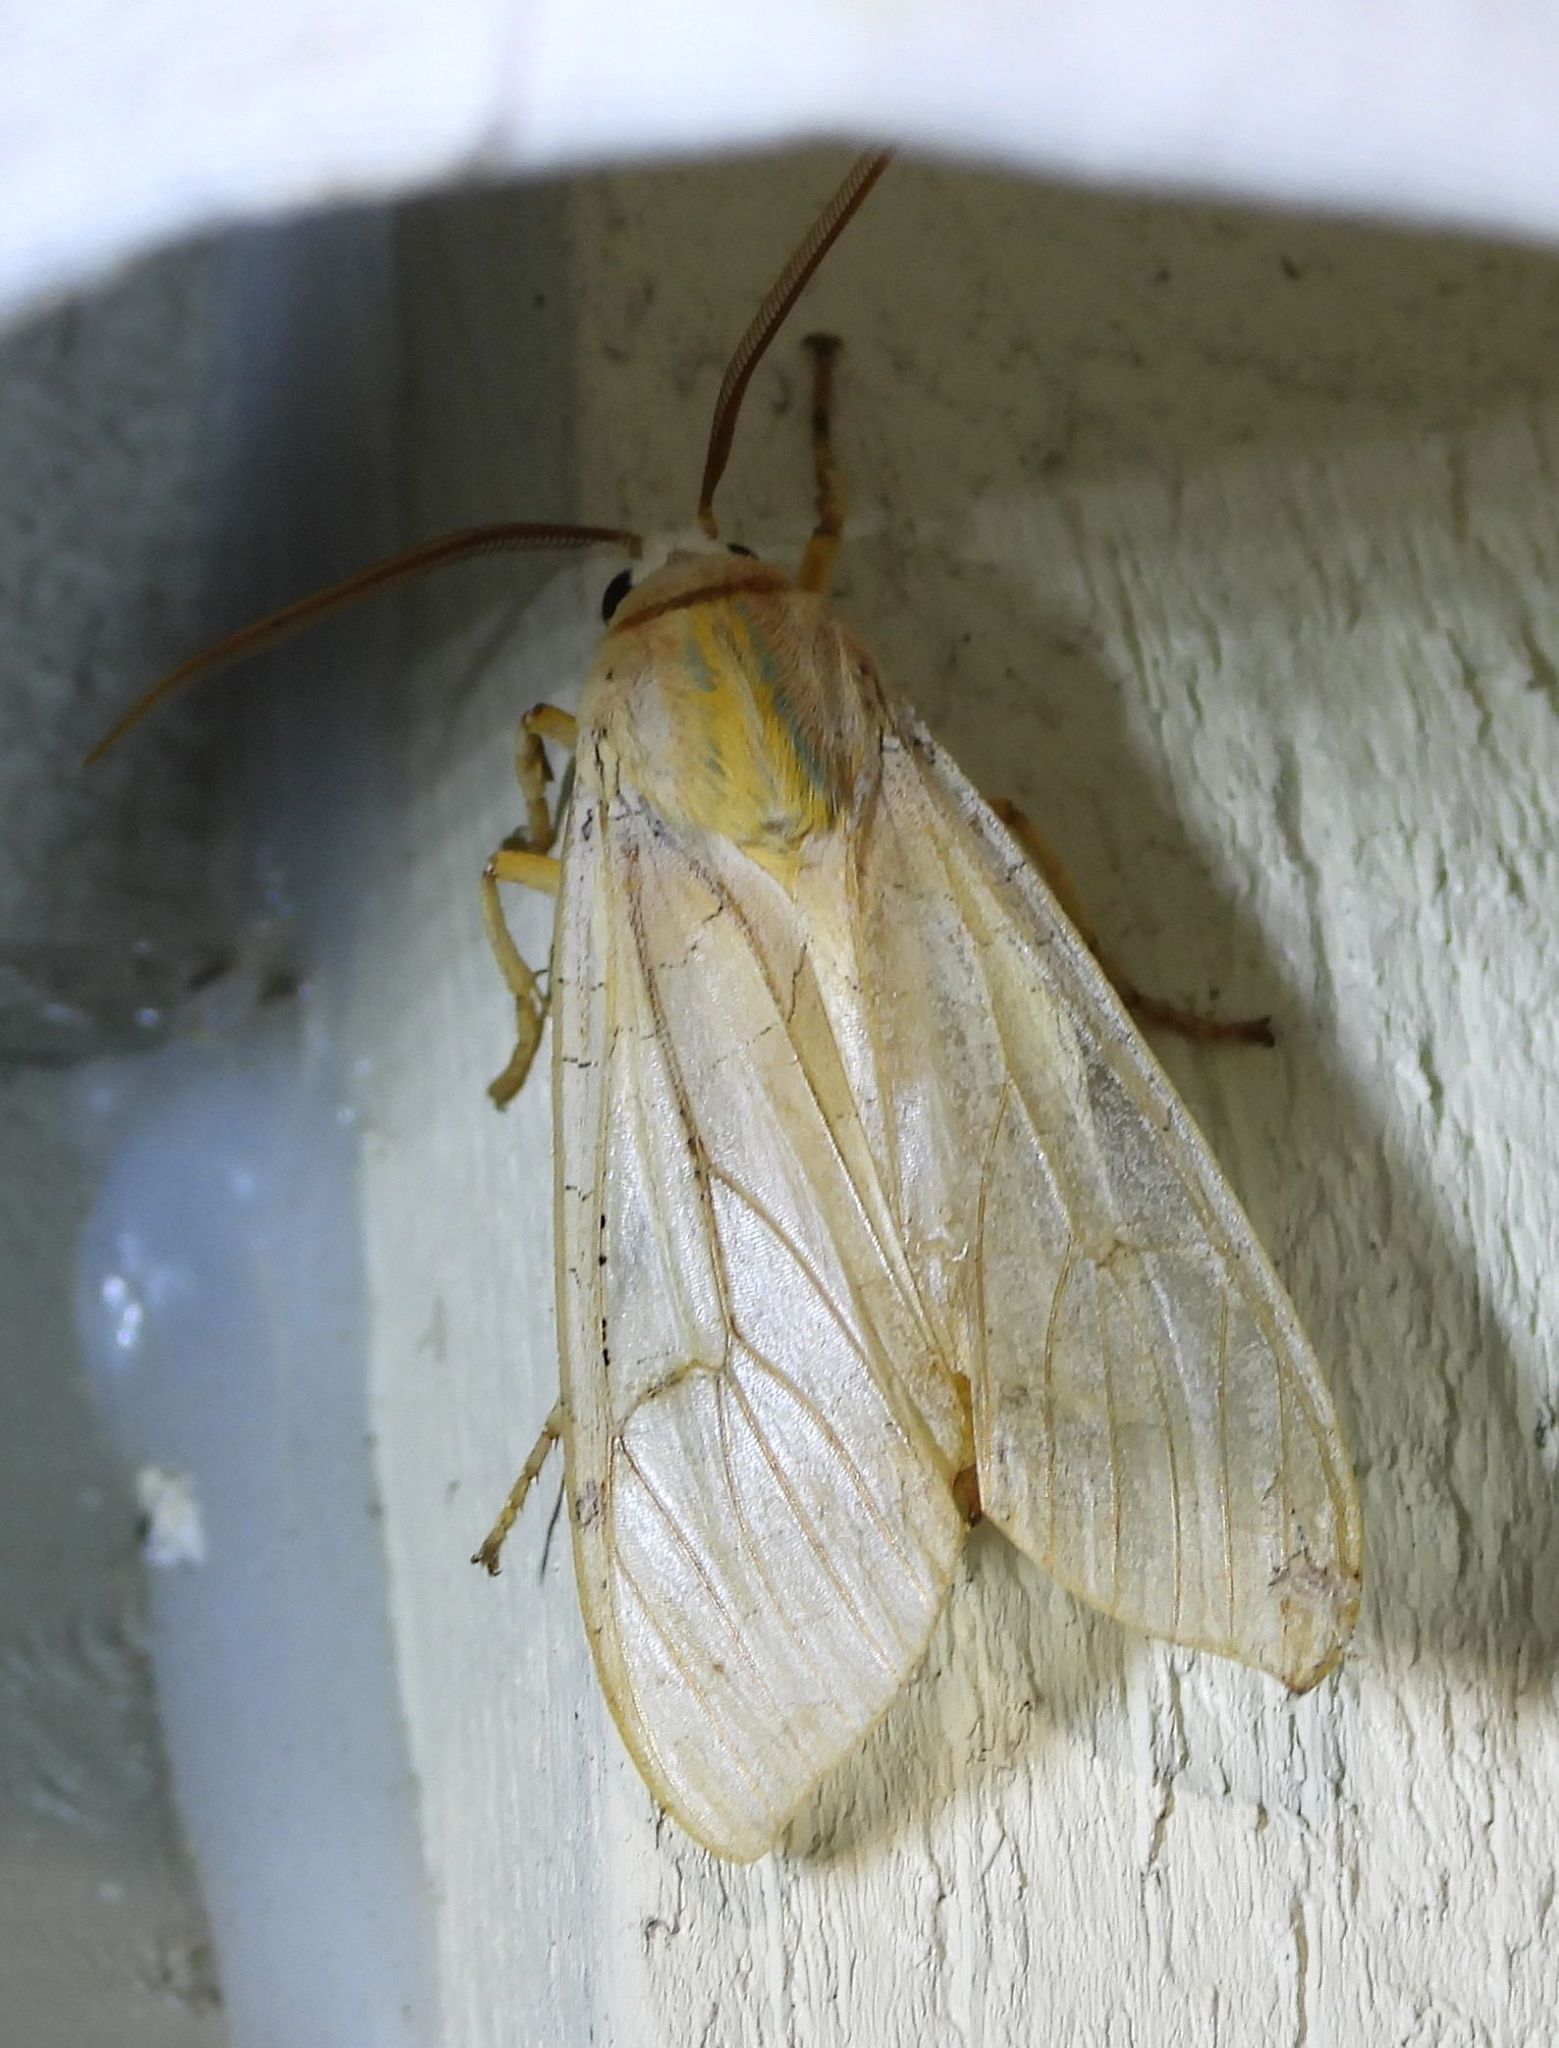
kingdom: Animalia
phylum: Arthropoda
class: Insecta
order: Lepidoptera
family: Erebidae
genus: Halysidota
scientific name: Halysidota tessellaris
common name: Banded tussock moth
